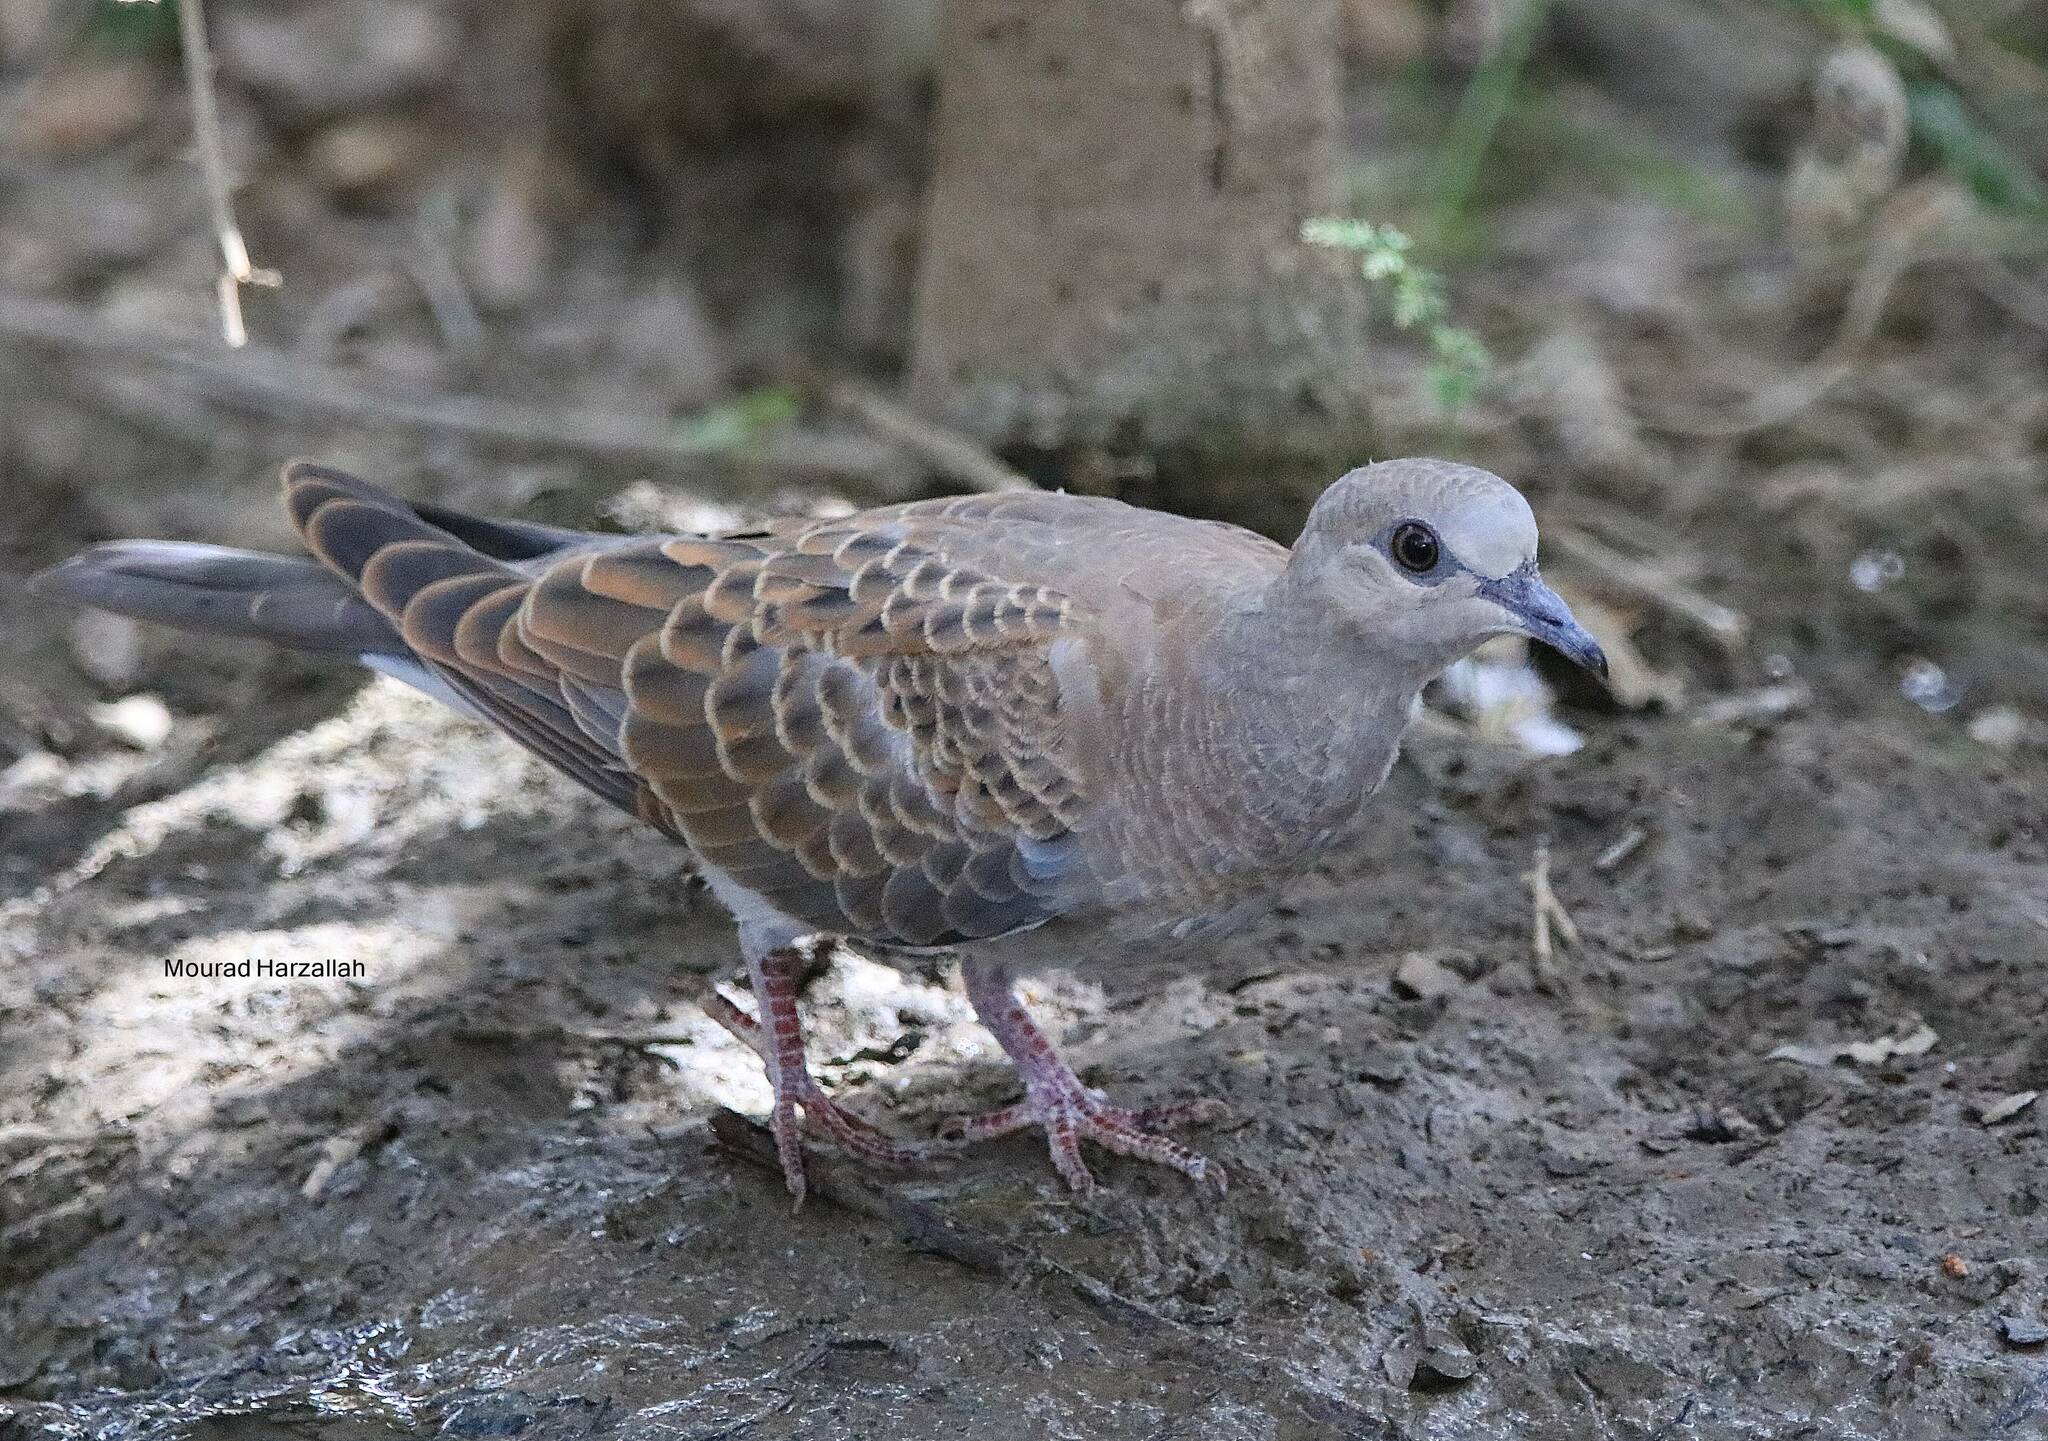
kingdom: Animalia
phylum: Chordata
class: Aves
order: Columbiformes
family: Columbidae
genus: Streptopelia
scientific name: Streptopelia turtur
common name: European turtle dove
